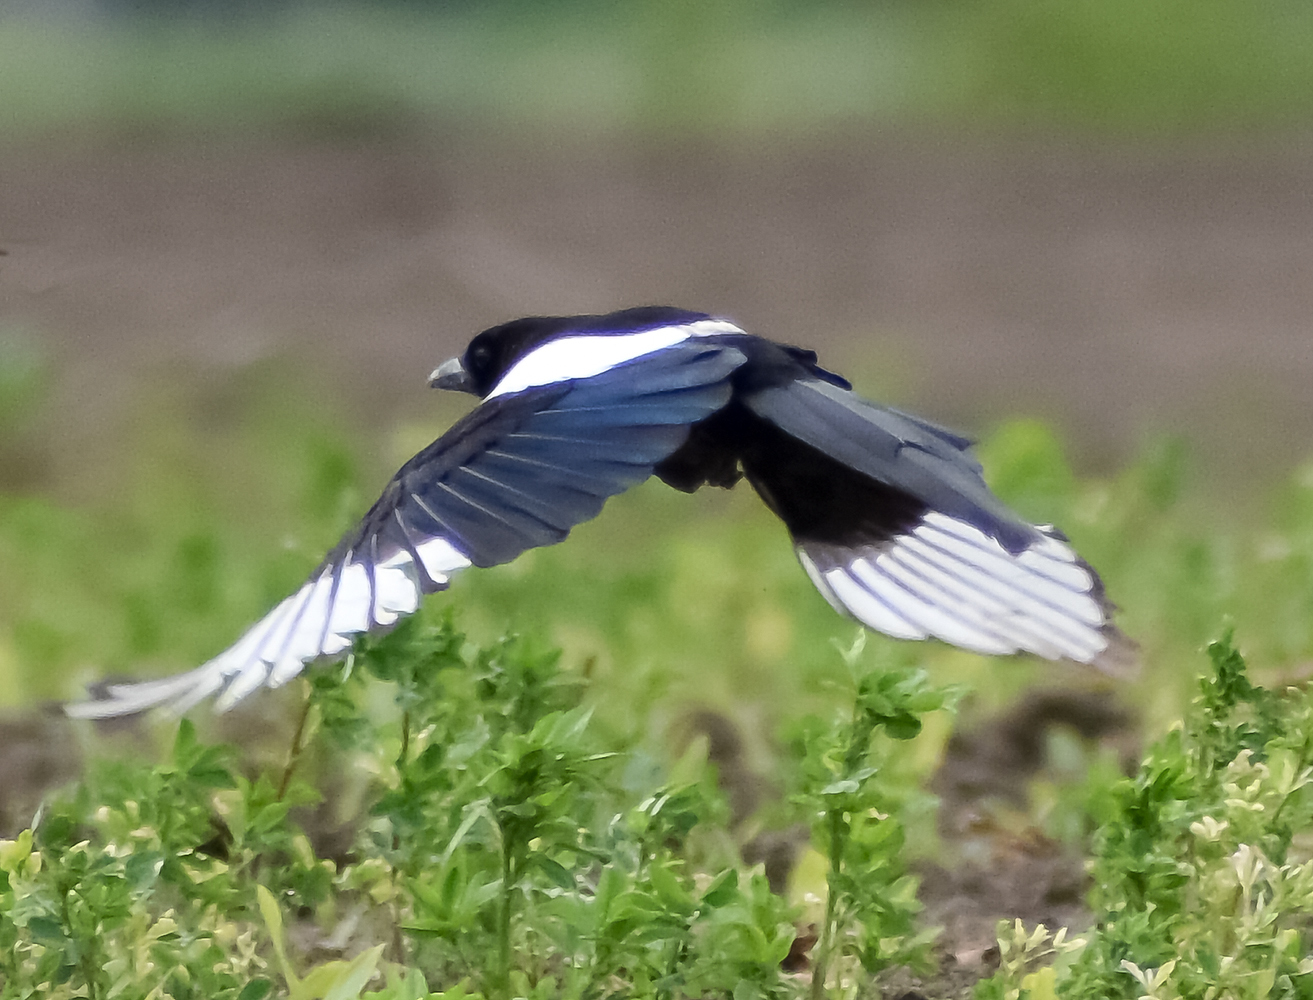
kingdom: Animalia
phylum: Chordata
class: Aves
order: Passeriformes
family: Corvidae
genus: Pica
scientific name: Pica pica
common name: Eurasian magpie
